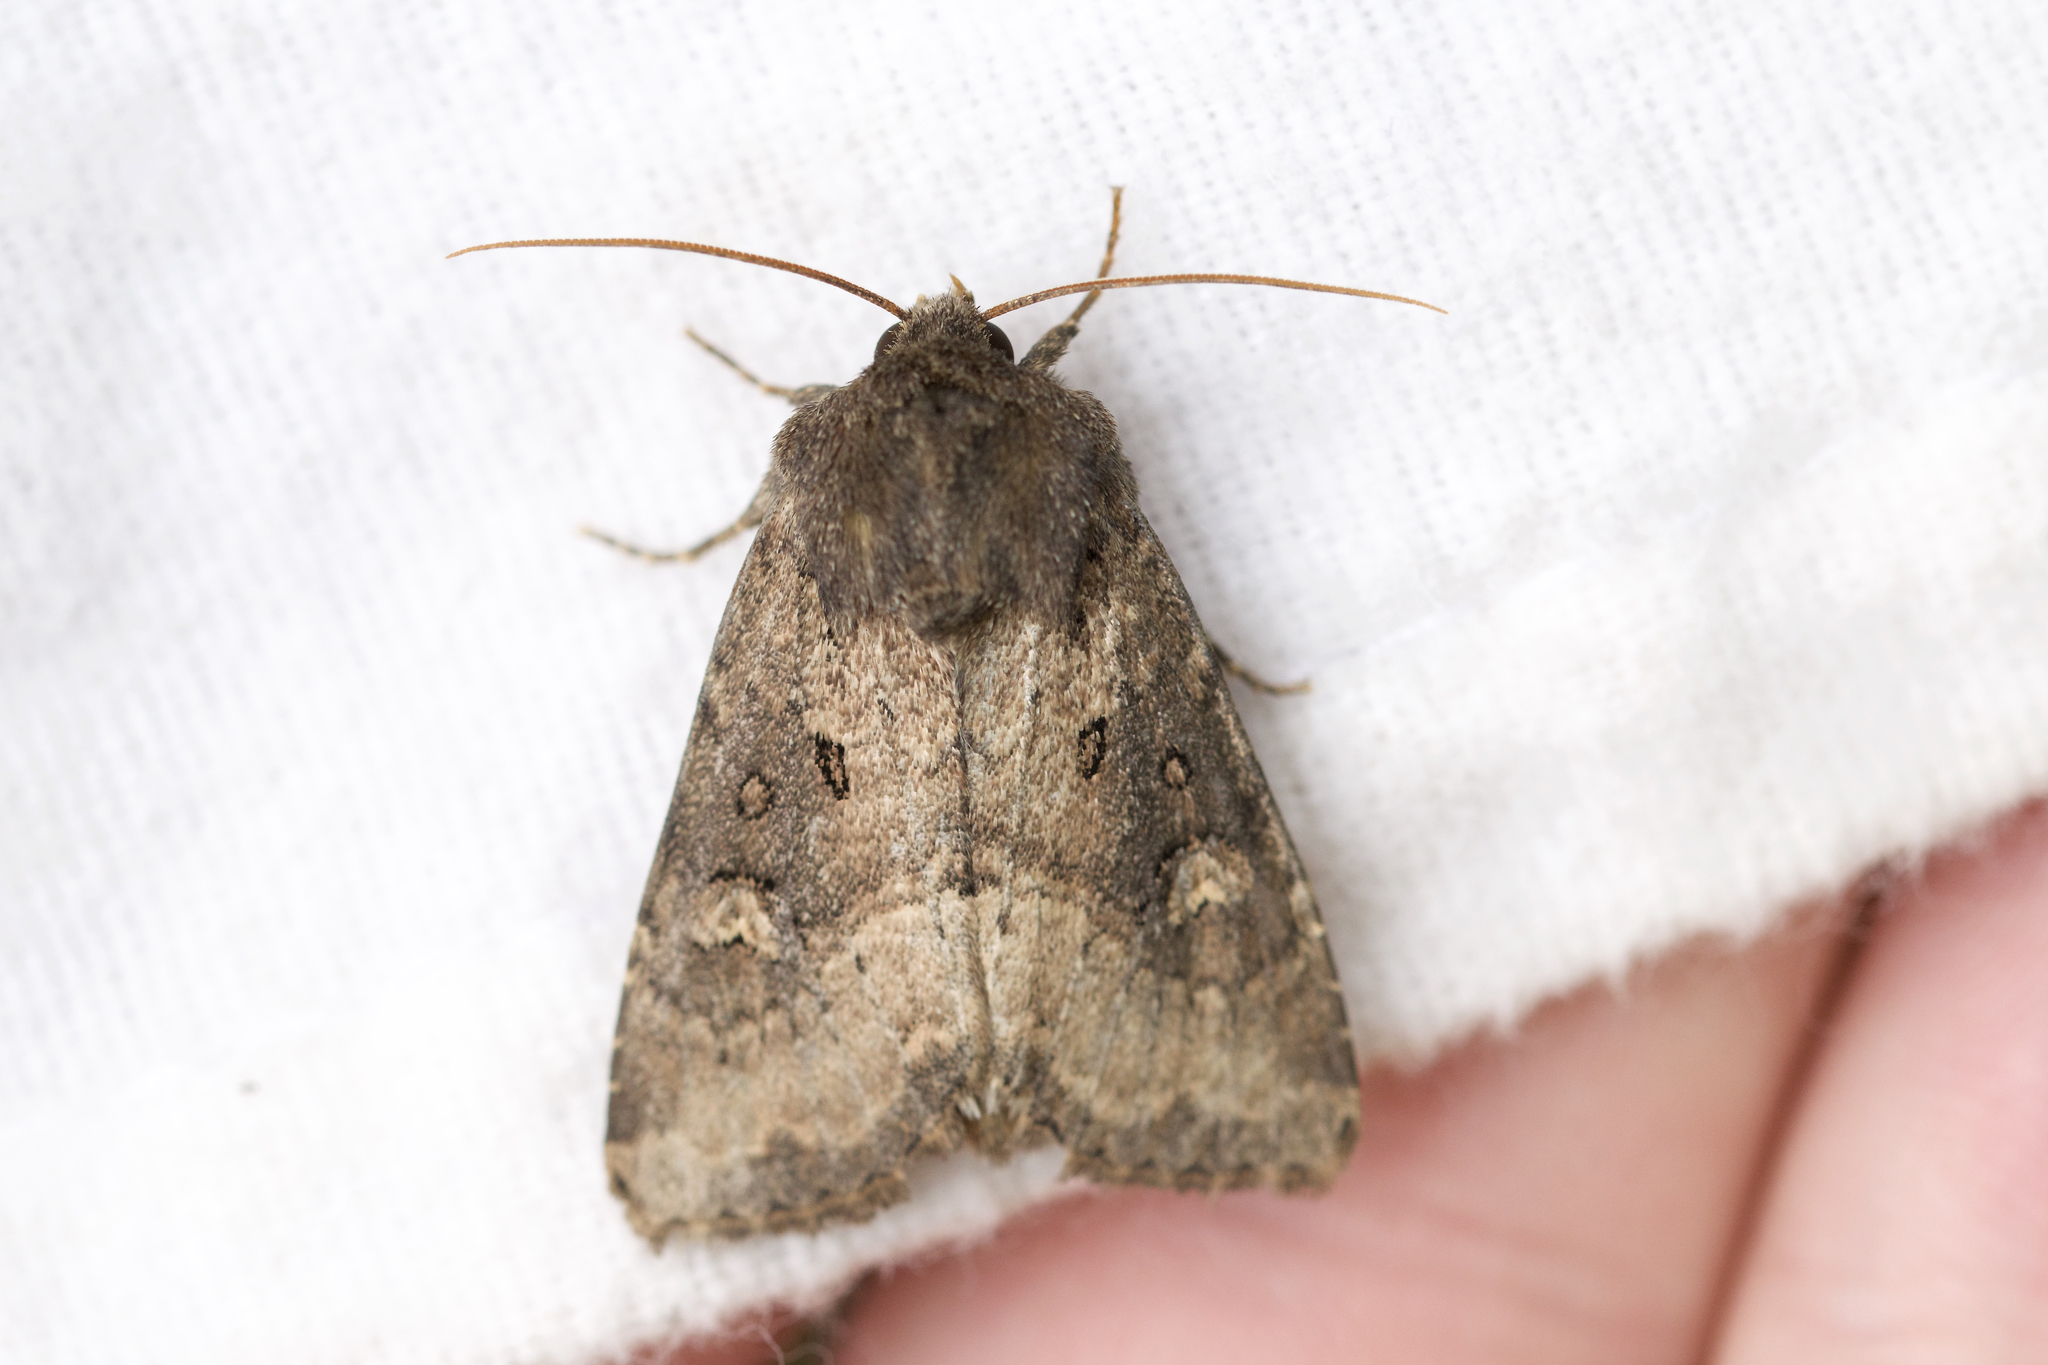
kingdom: Animalia
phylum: Arthropoda
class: Insecta
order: Lepidoptera
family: Noctuidae
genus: Resapamea
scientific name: Resapamea passer
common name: Dock rustic moth
